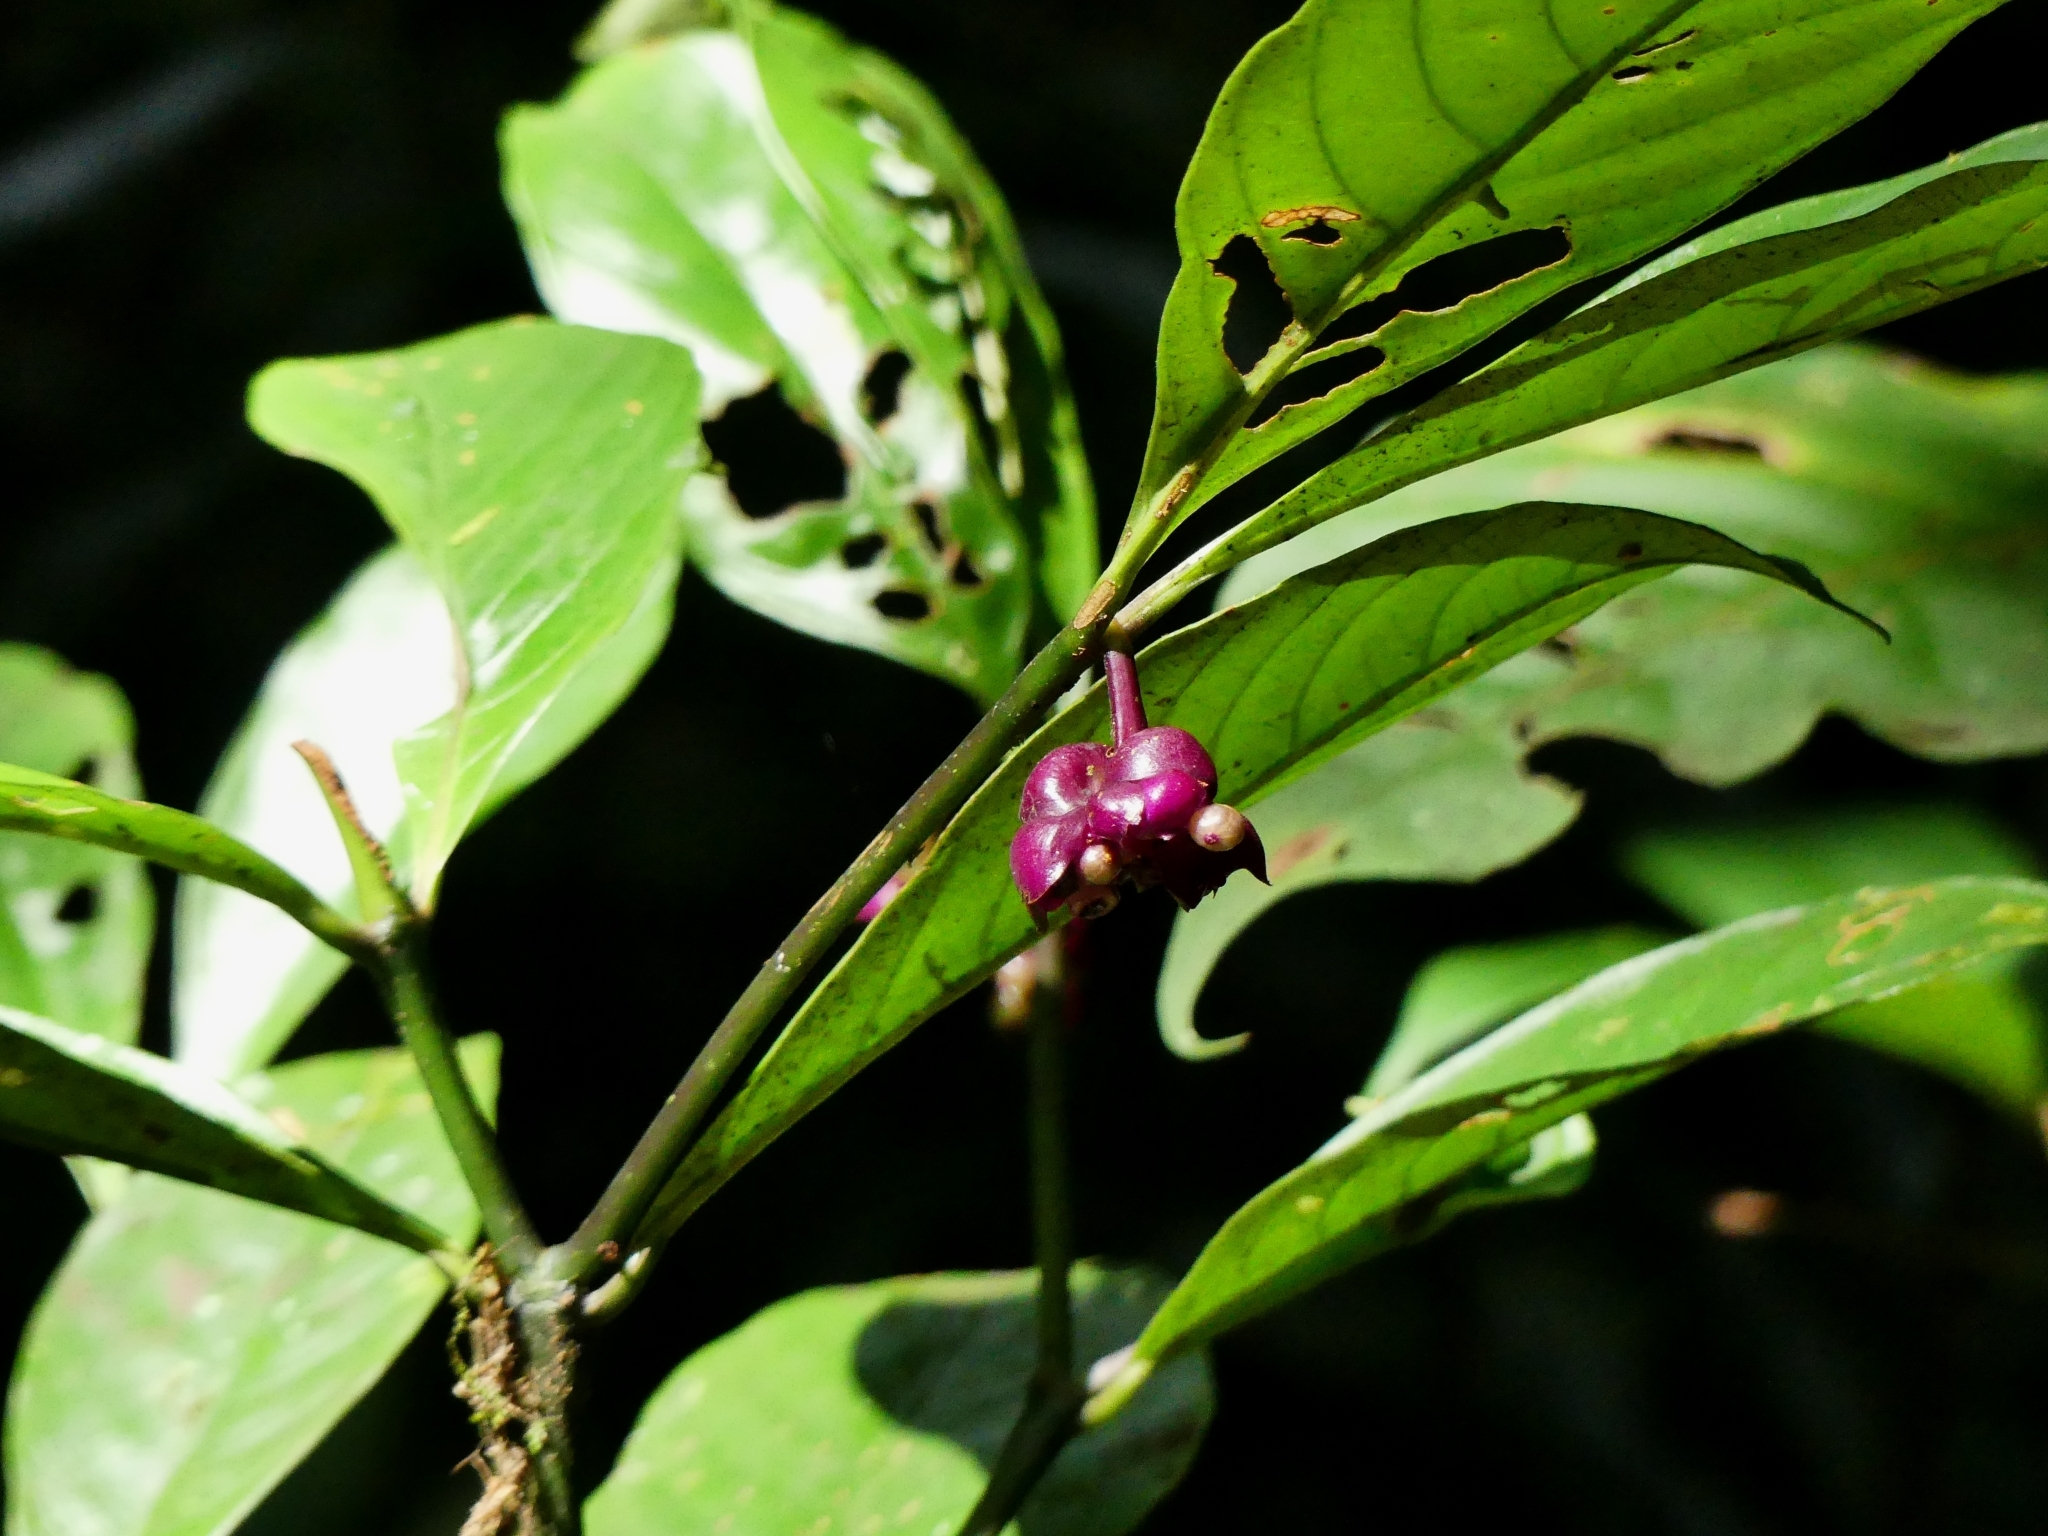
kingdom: Plantae
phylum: Tracheophyta
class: Magnoliopsida
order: Gentianales
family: Rubiaceae
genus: Palicourea
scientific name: Palicourea dichotoma
